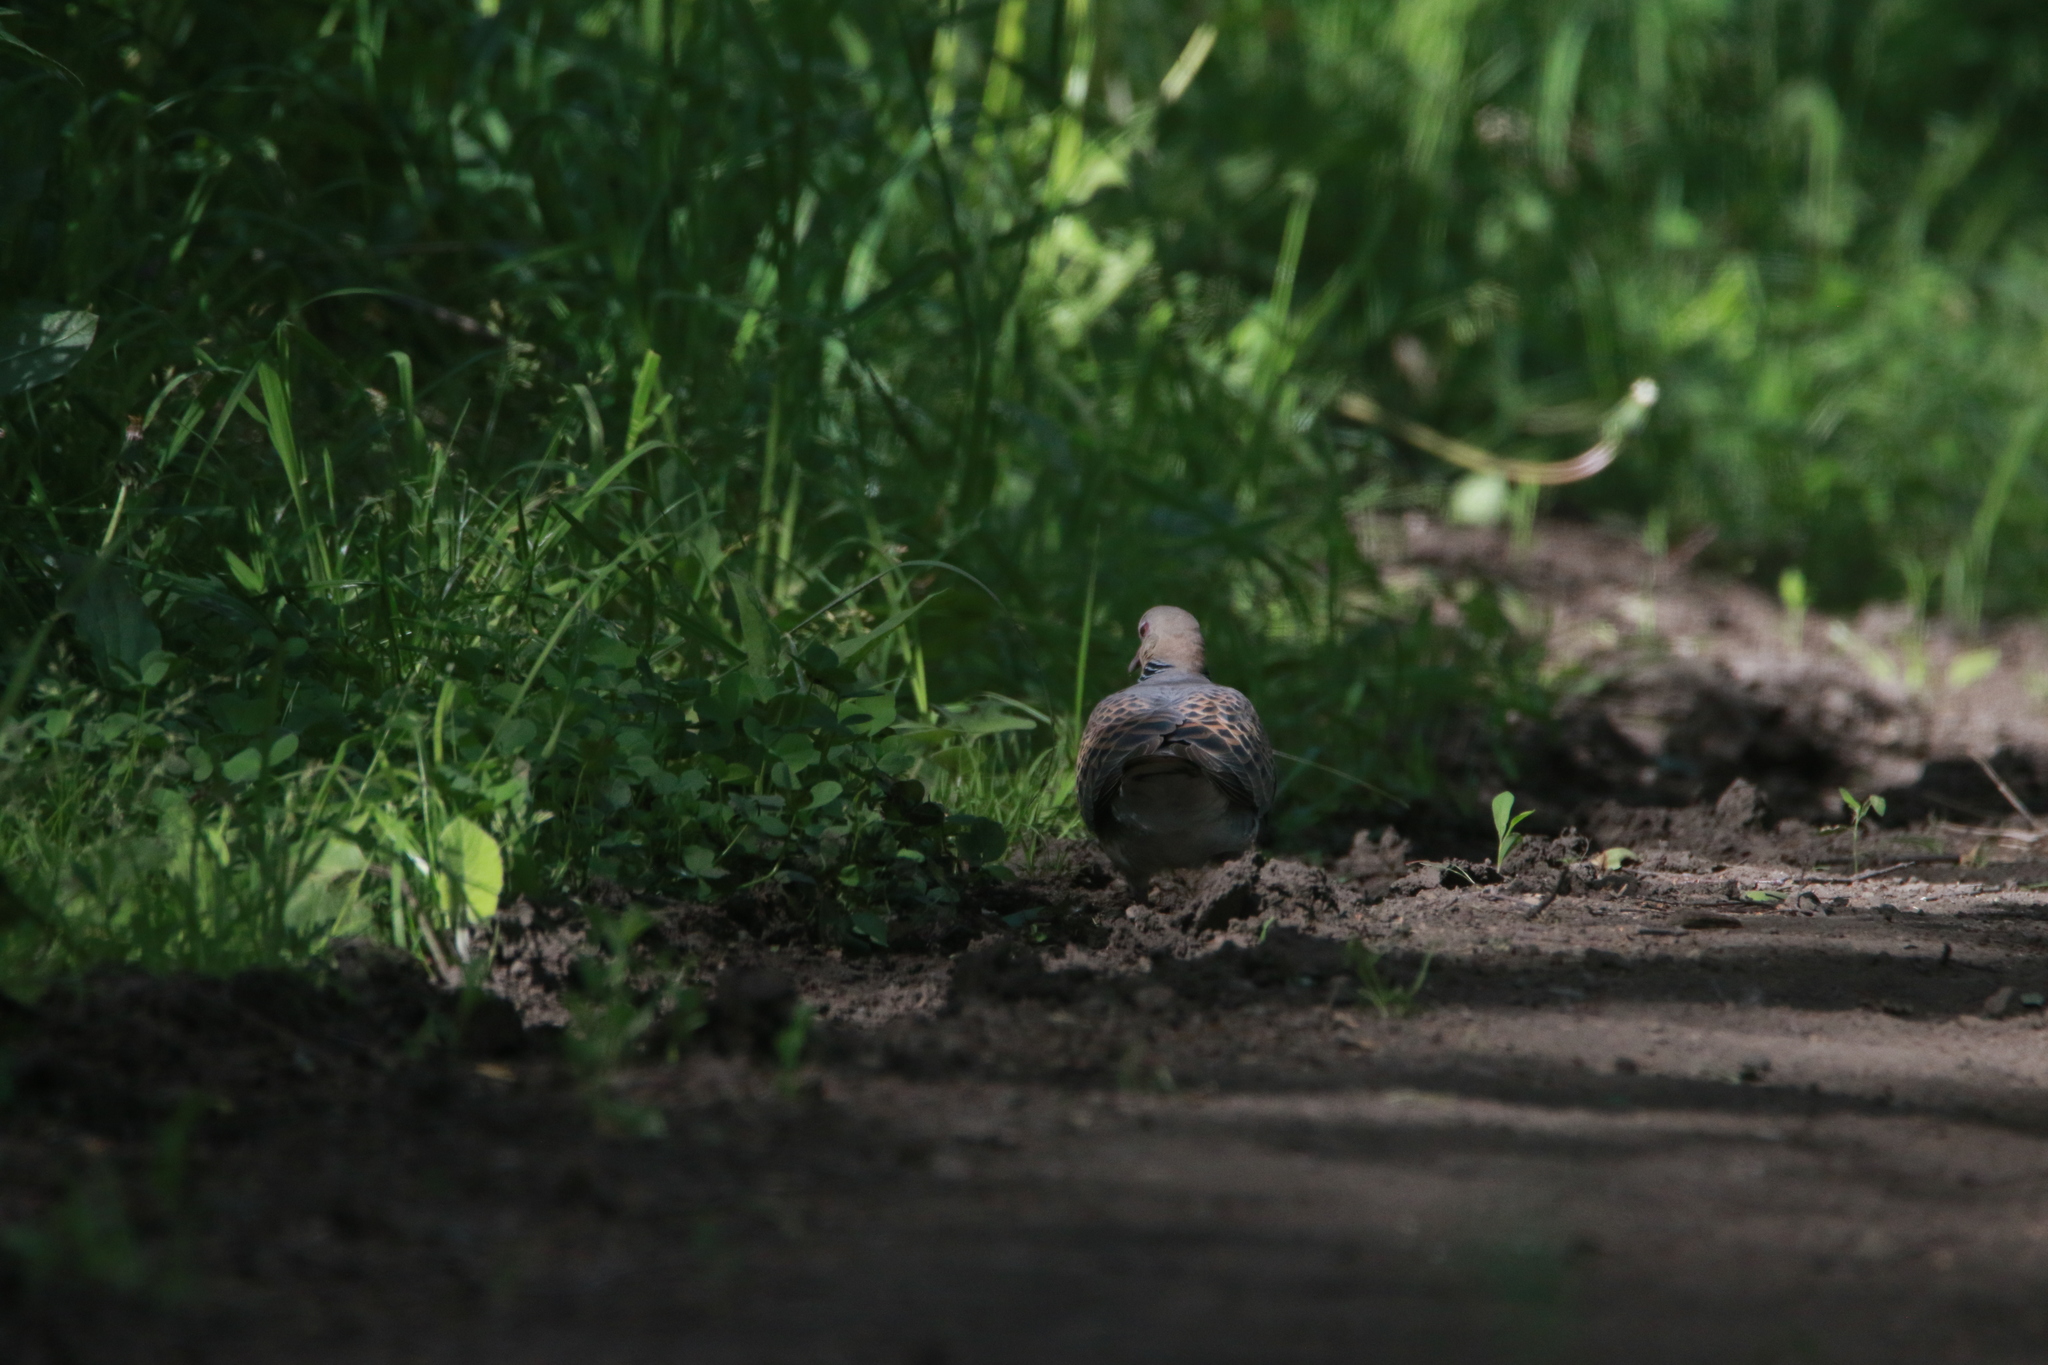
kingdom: Animalia
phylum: Chordata
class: Aves
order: Columbiformes
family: Columbidae
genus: Streptopelia
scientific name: Streptopelia orientalis
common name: Oriental turtle dove
